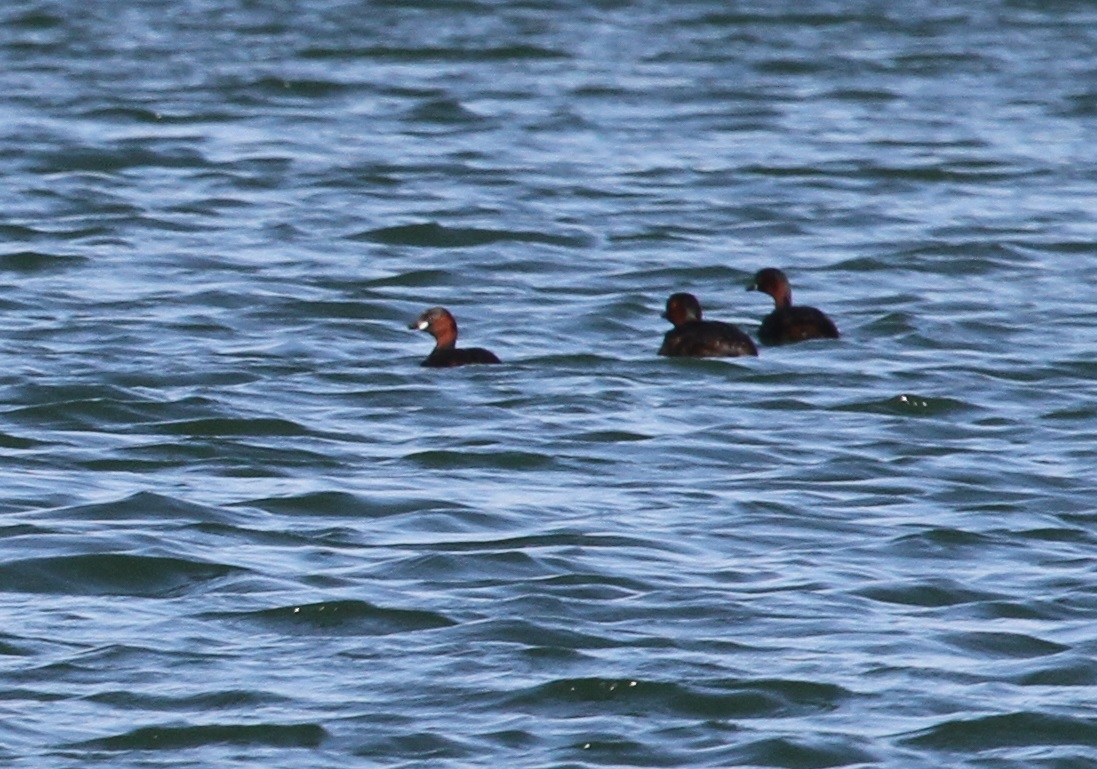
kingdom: Animalia
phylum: Chordata
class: Aves
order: Podicipediformes
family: Podicipedidae
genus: Tachybaptus
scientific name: Tachybaptus ruficollis
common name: Little grebe
